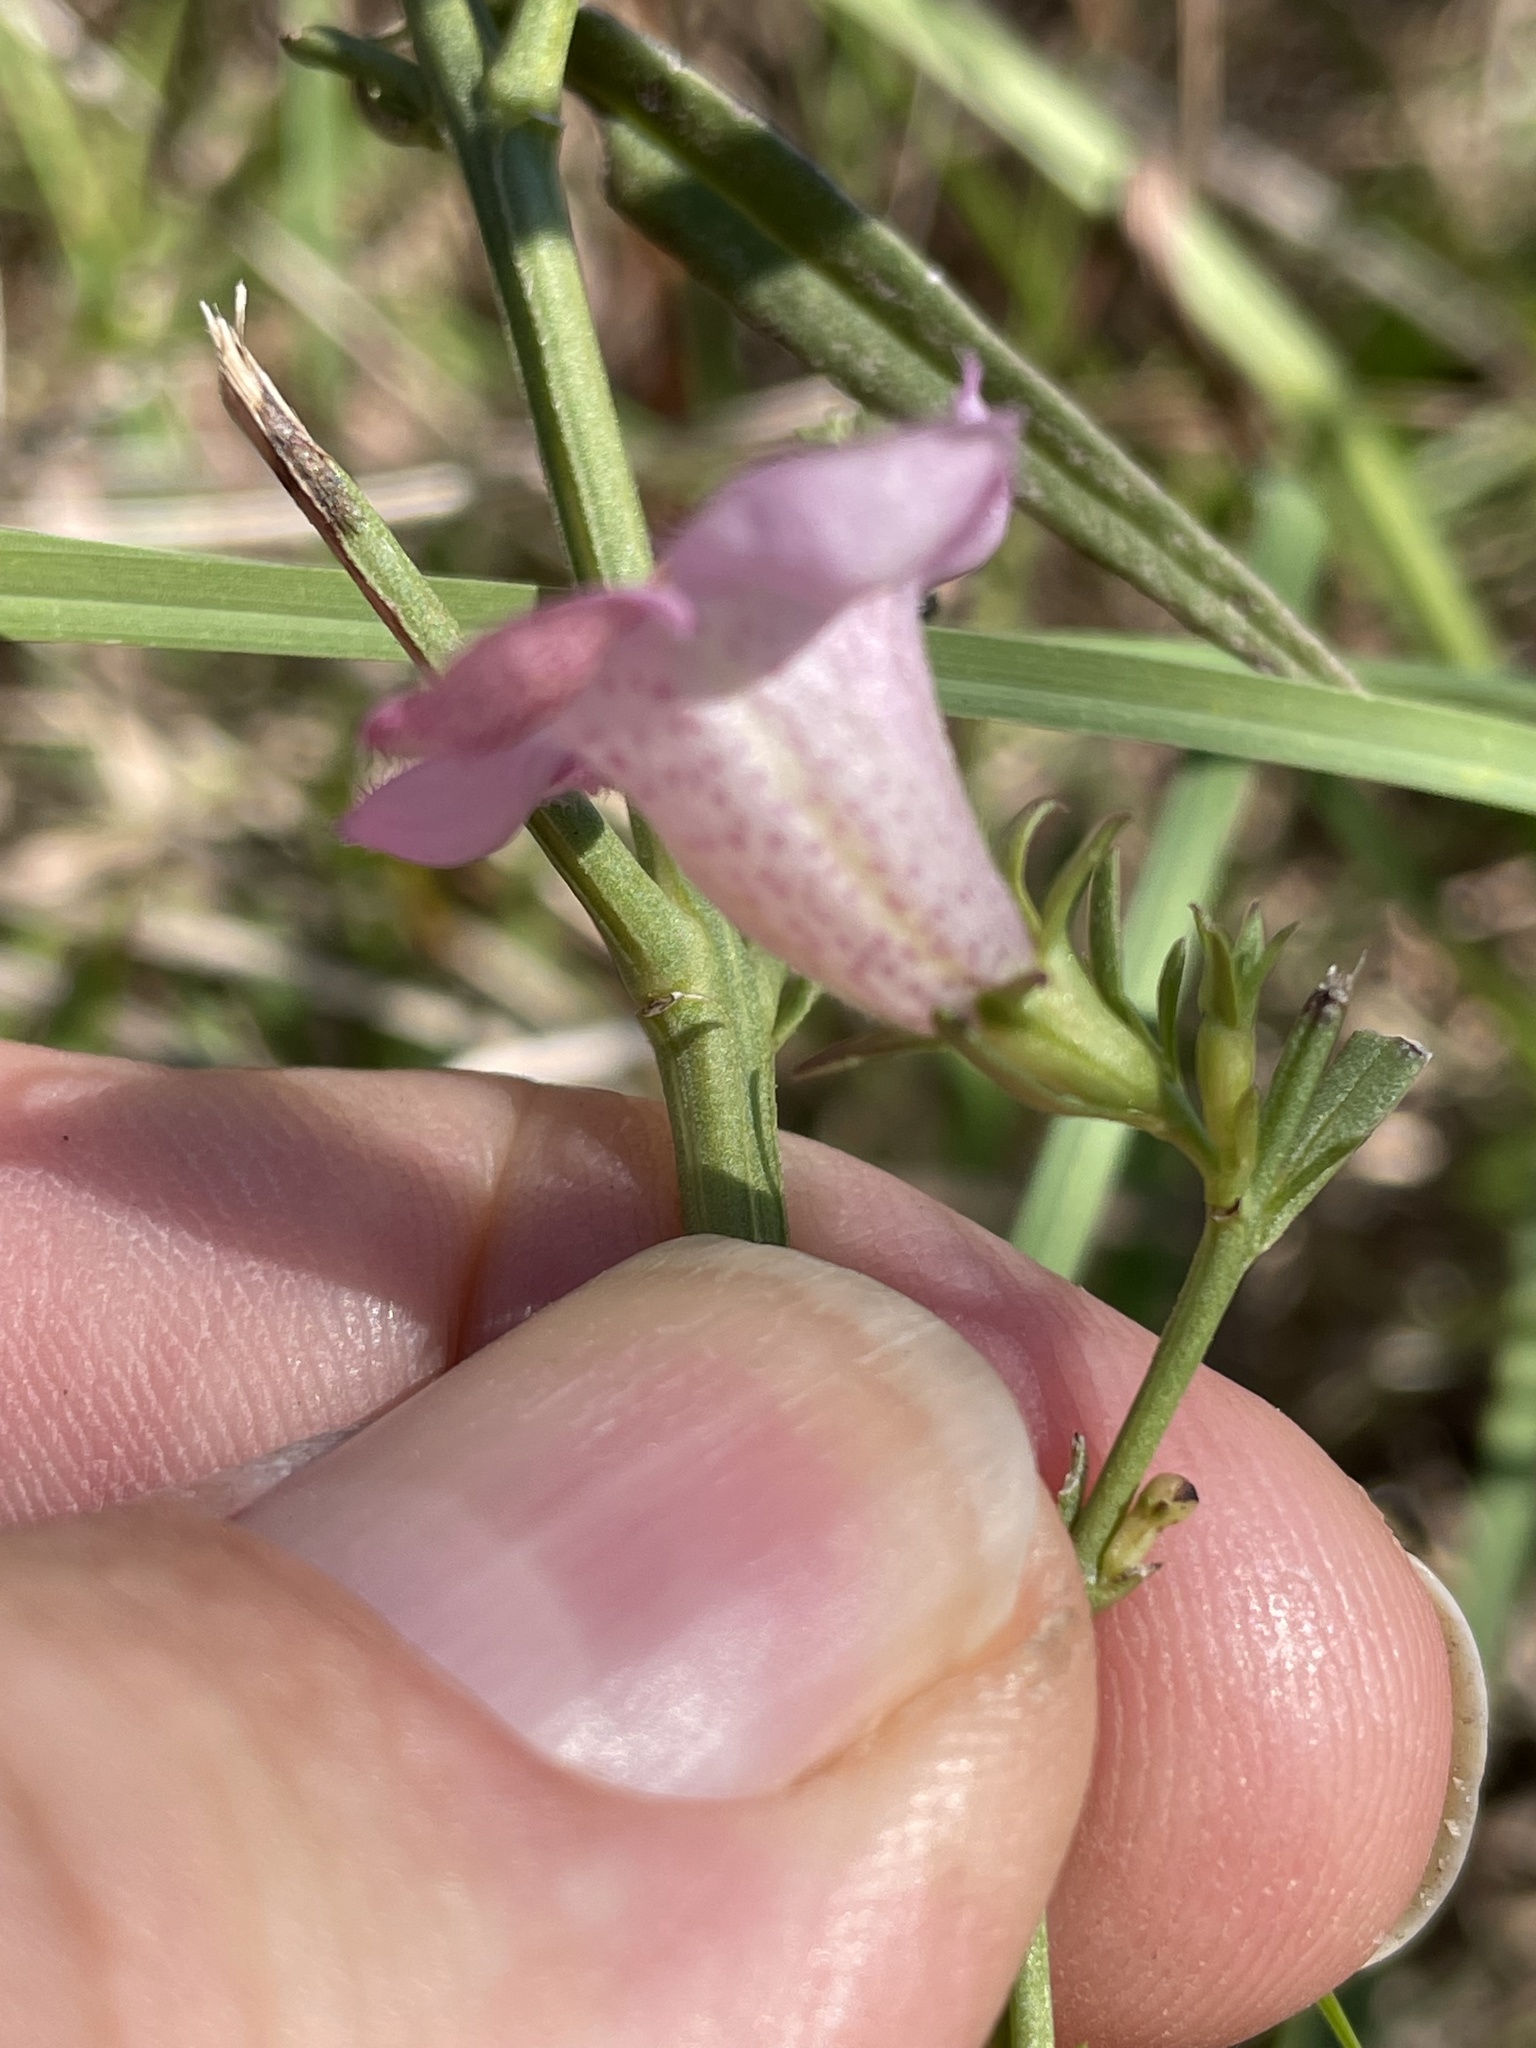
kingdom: Plantae
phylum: Tracheophyta
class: Magnoliopsida
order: Lamiales
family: Orobanchaceae
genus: Agalinis
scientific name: Agalinis heterophylla
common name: Prairie agalinis
